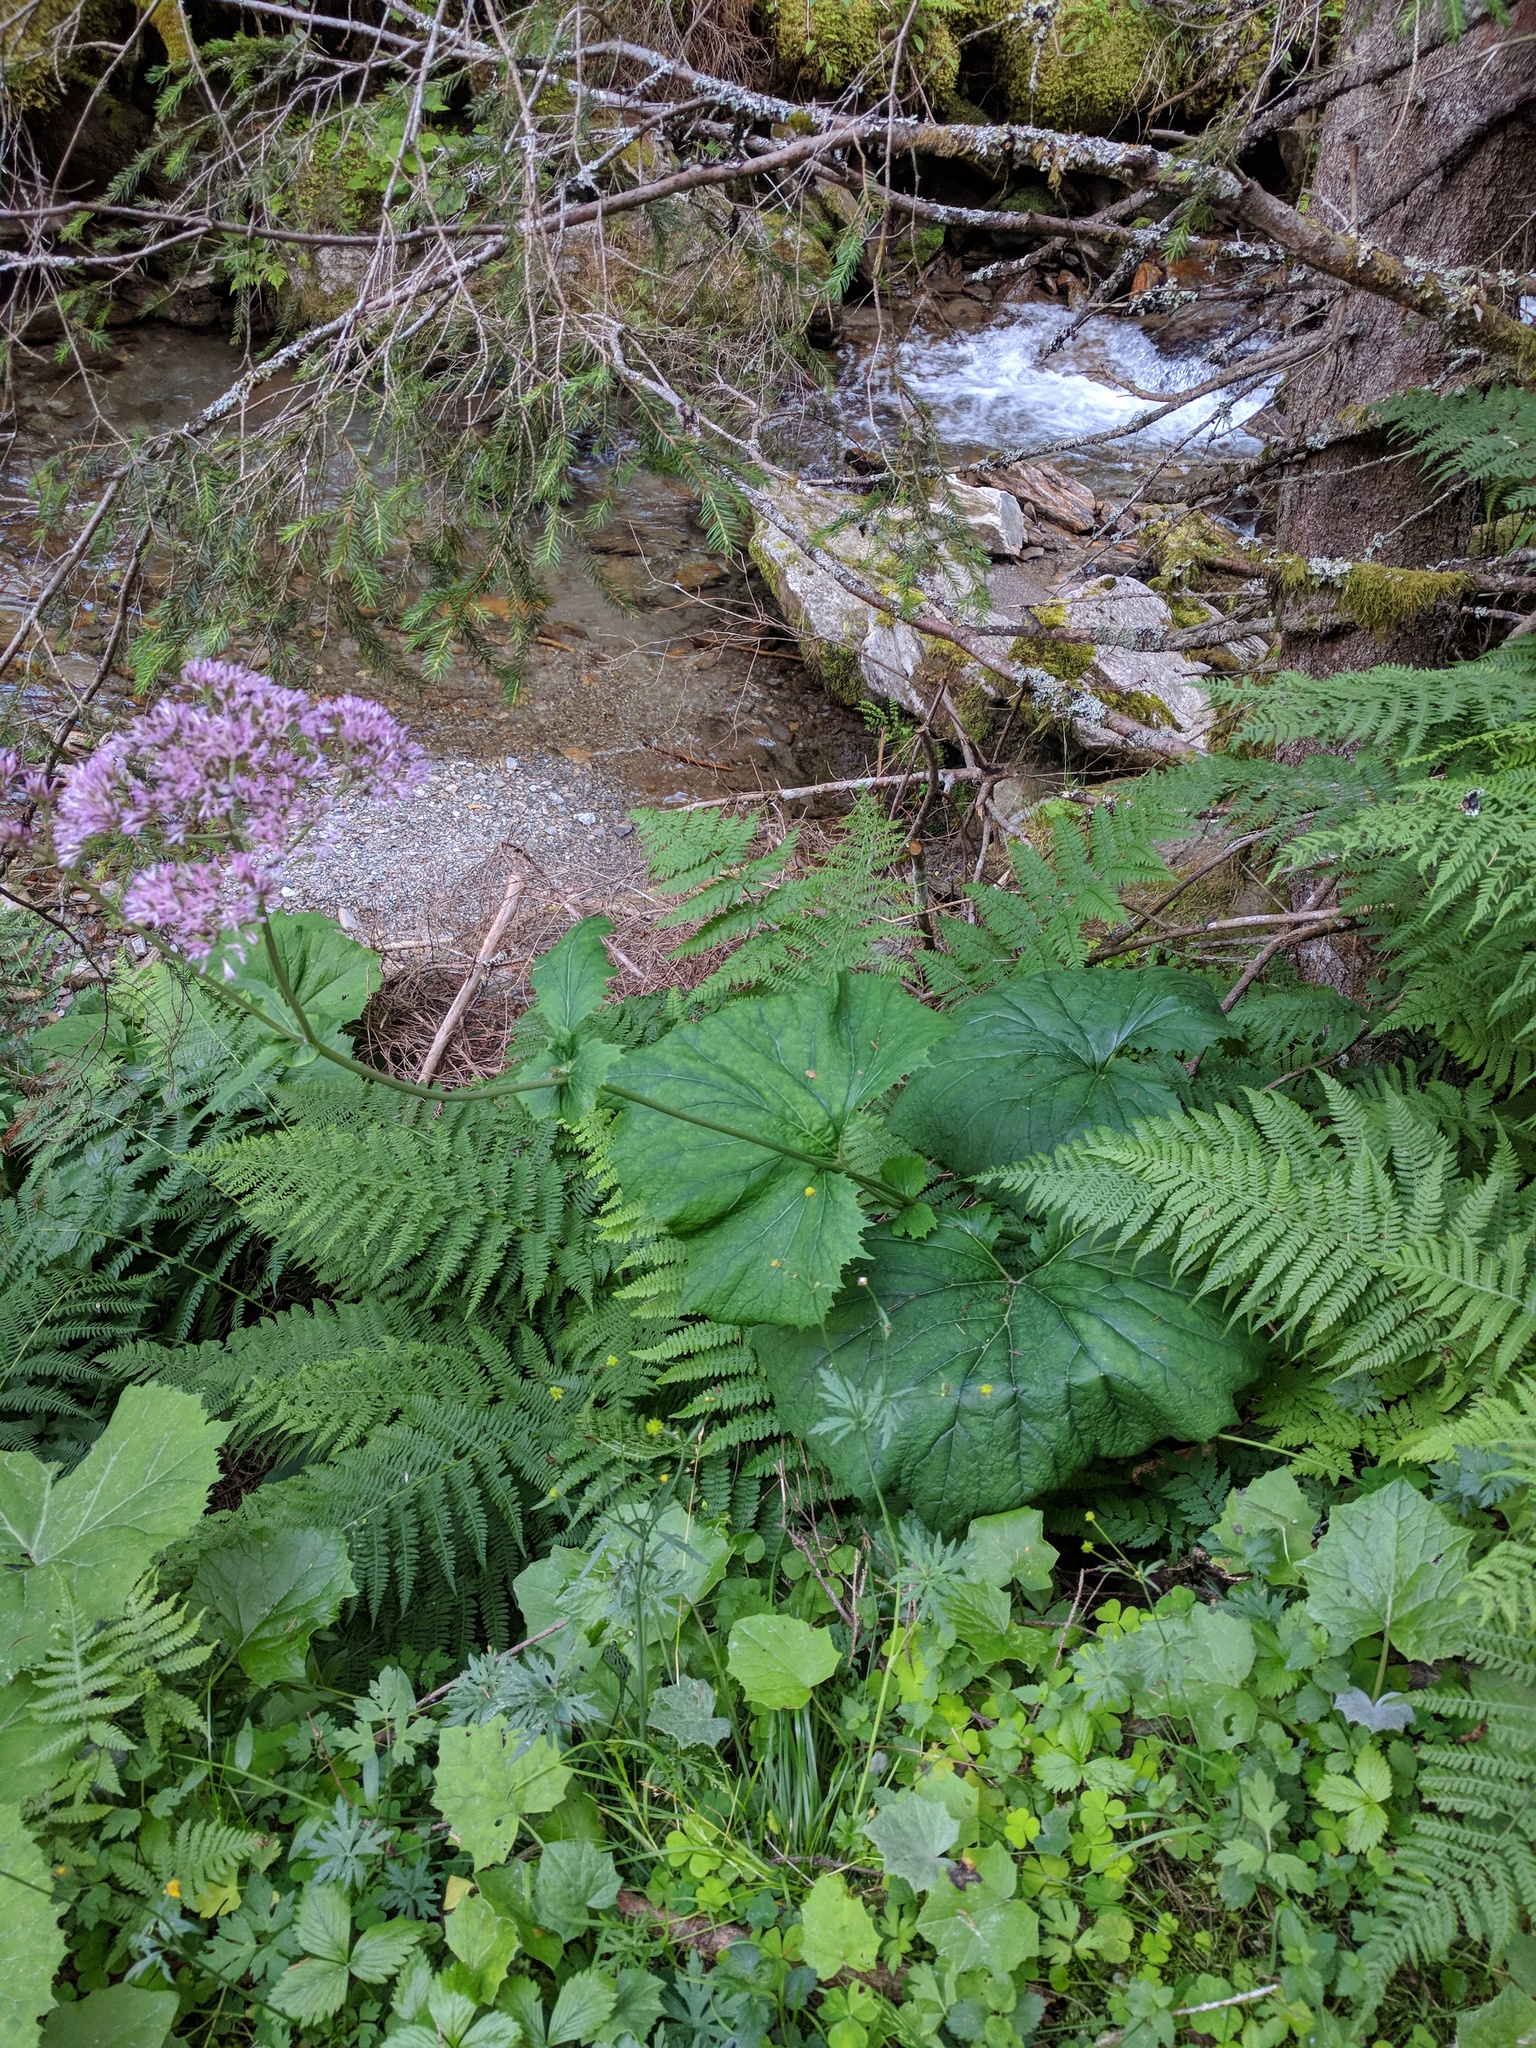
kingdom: Plantae
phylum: Tracheophyta
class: Magnoliopsida
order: Asterales
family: Asteraceae
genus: Adenostyles
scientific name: Adenostyles alliariae
